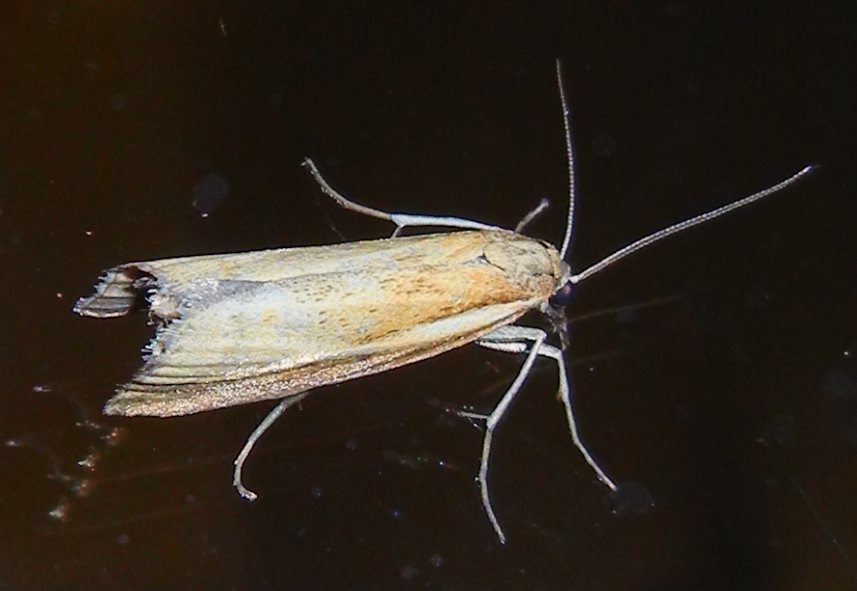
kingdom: Animalia
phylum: Arthropoda
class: Insecta
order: Lepidoptera
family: Crambidae
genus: Agriphila
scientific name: Agriphila tristellus
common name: Common grass-veneer
